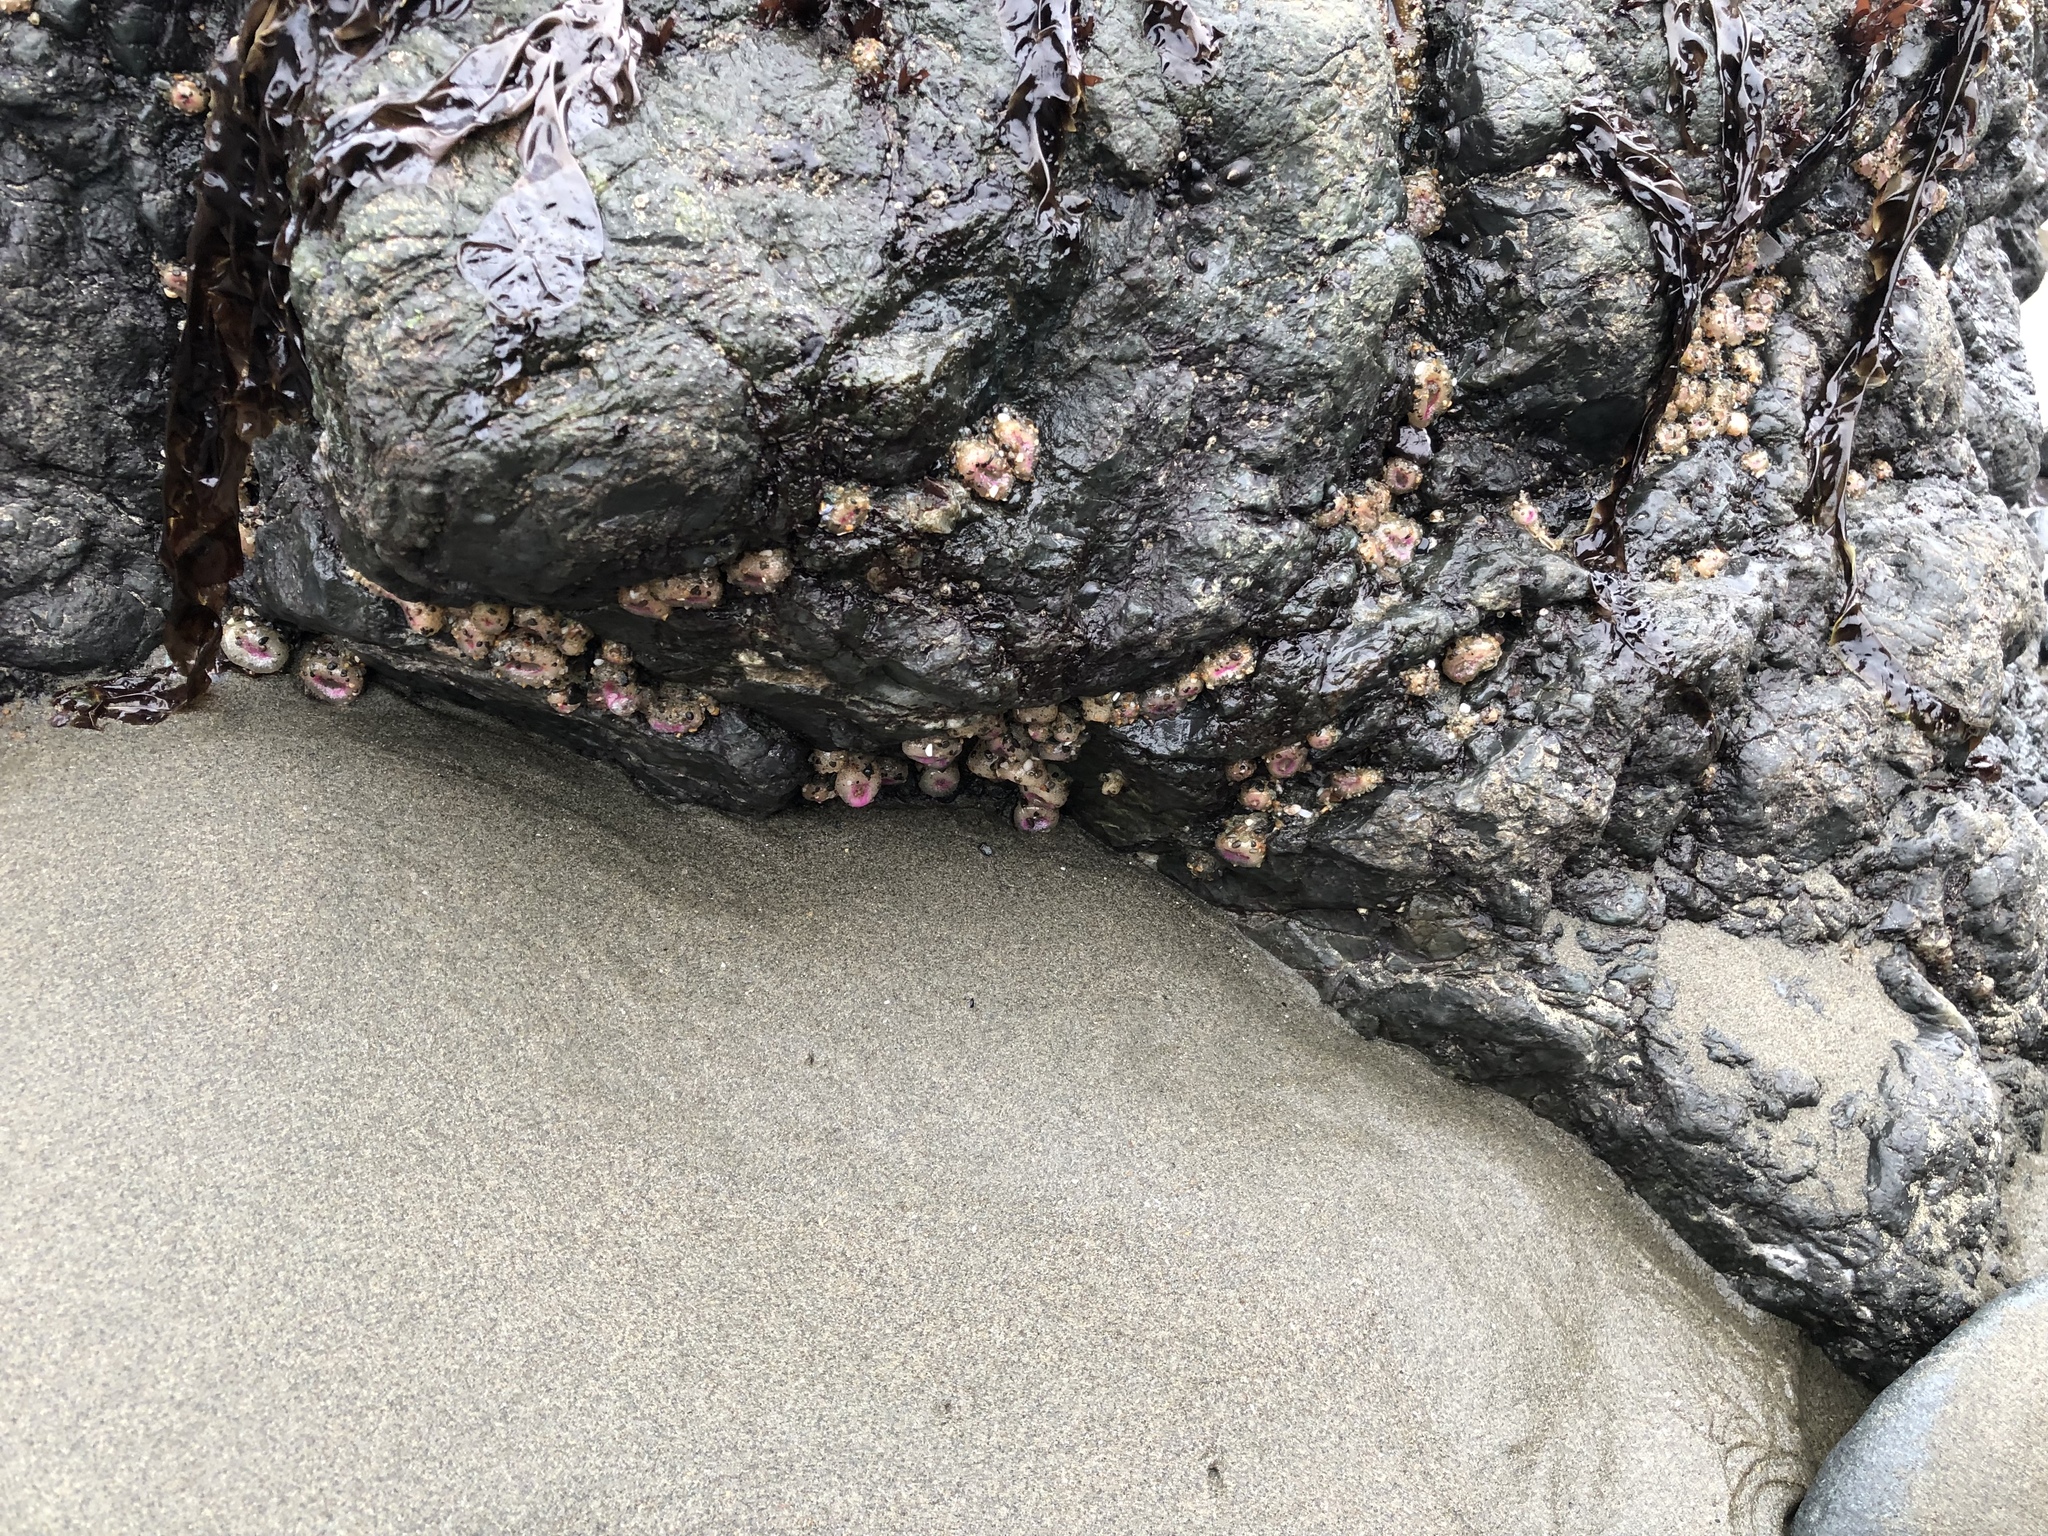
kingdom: Animalia
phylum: Cnidaria
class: Anthozoa
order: Actiniaria
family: Actiniidae
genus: Anthopleura
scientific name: Anthopleura elegantissima
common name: Clonal anemone
